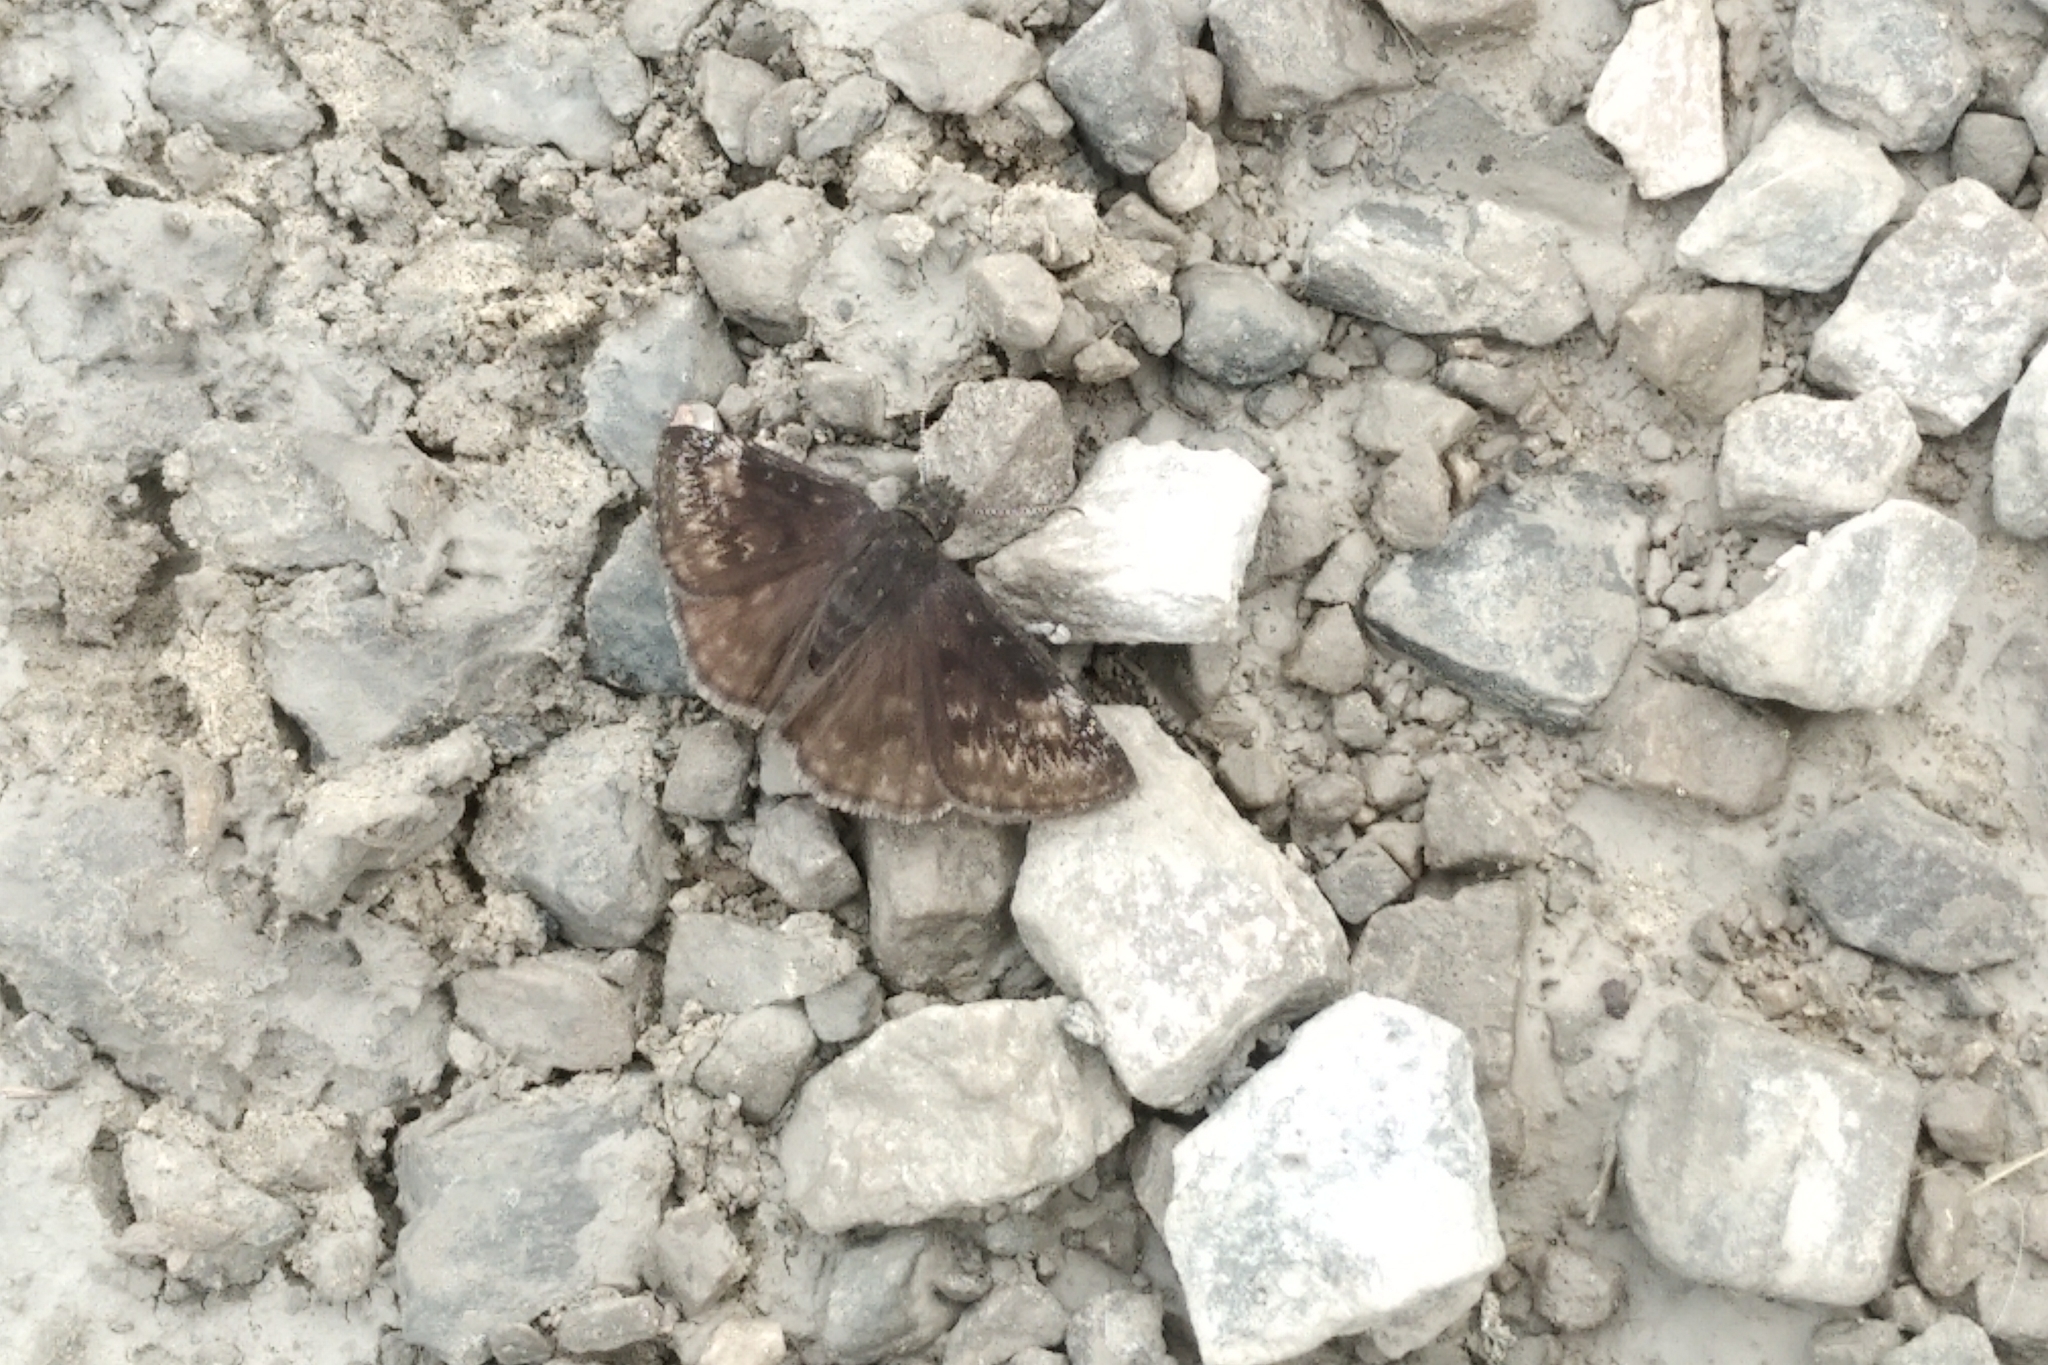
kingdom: Animalia
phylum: Arthropoda
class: Insecta
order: Lepidoptera
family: Hesperiidae
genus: Erynnis
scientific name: Erynnis baptisiae
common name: Wild indigo duskywing
